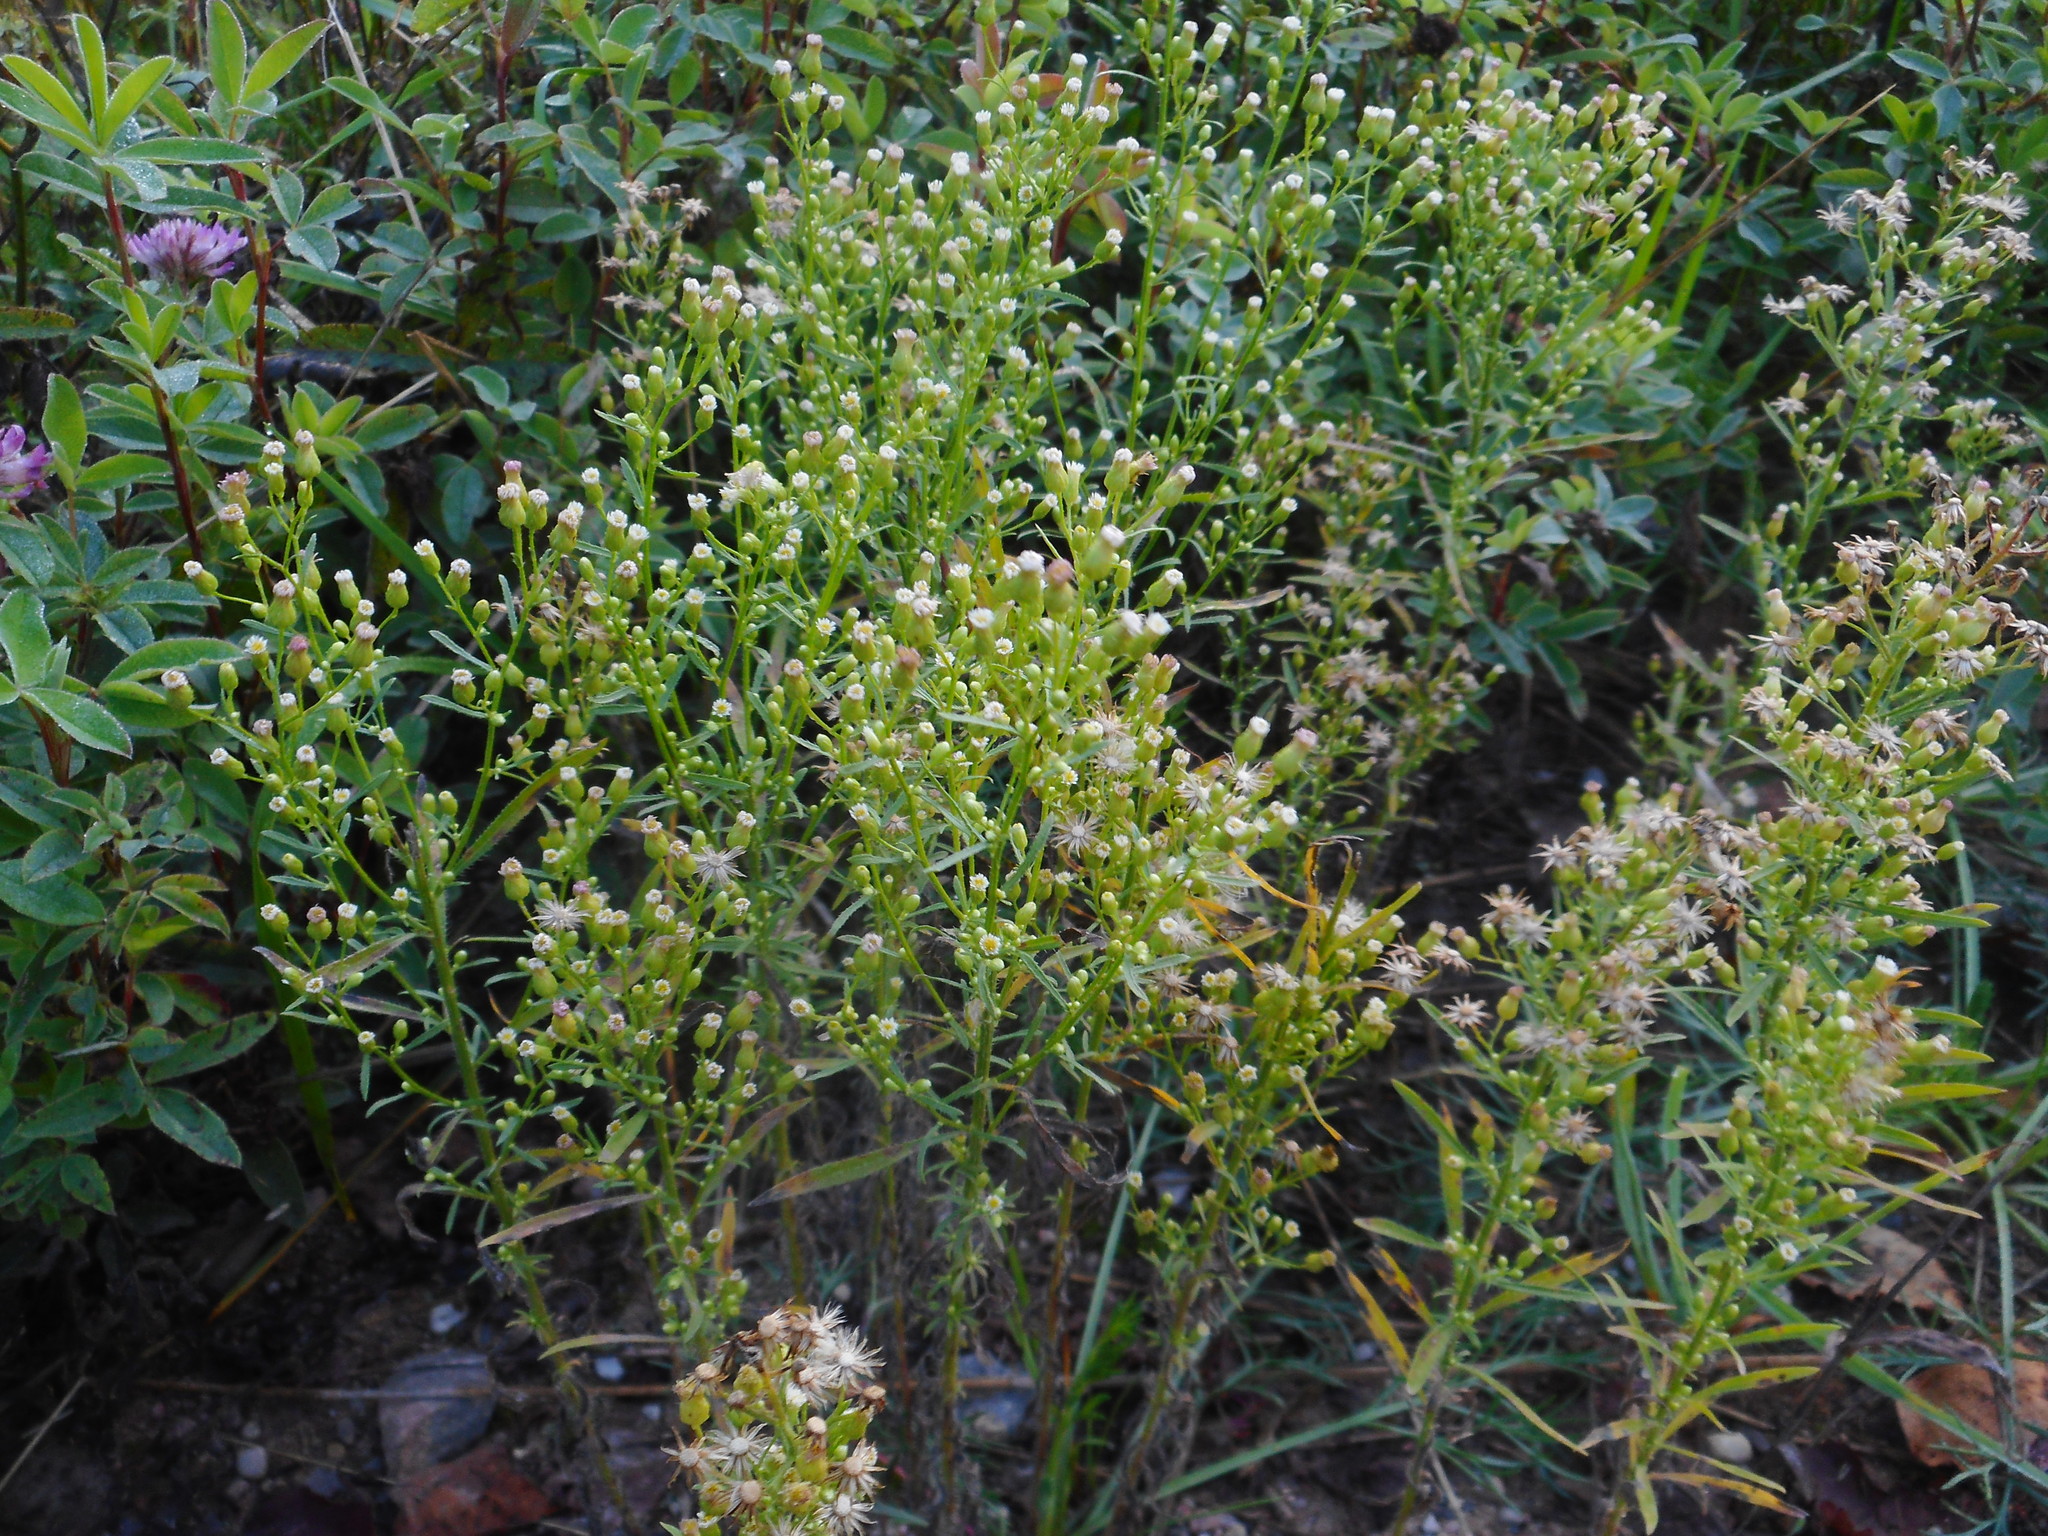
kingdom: Plantae
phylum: Tracheophyta
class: Magnoliopsida
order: Asterales
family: Asteraceae
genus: Erigeron
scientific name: Erigeron canadensis
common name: Canadian fleabane
